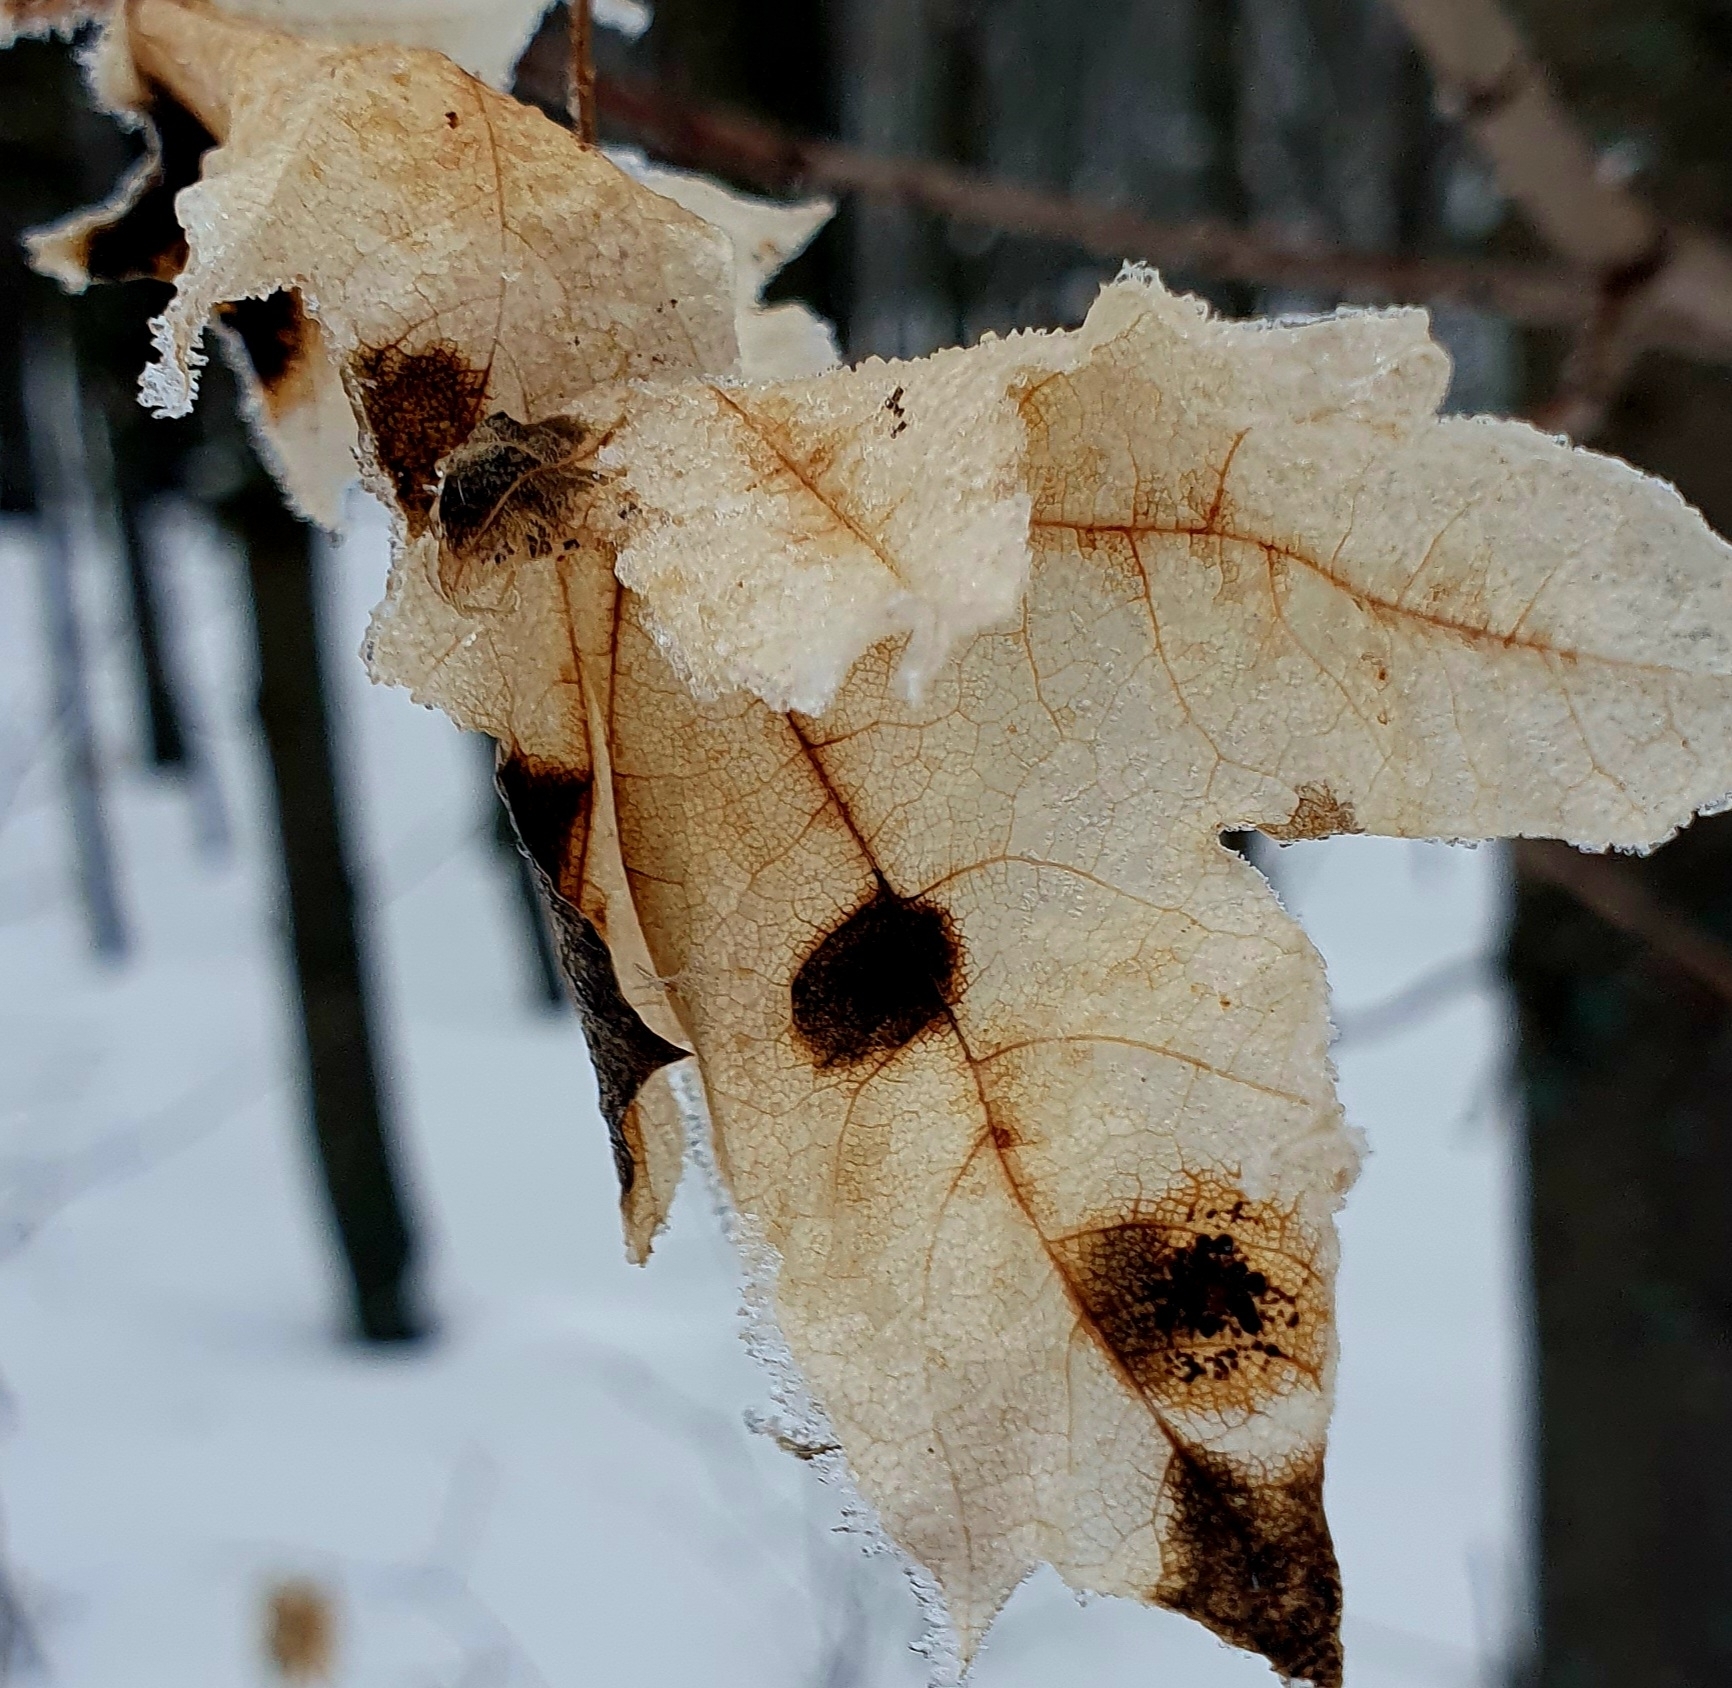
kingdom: Fungi
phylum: Ascomycota
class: Leotiomycetes
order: Rhytismatales
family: Rhytismataceae
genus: Rhytisma
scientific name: Rhytisma acerinum
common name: European tar spot
